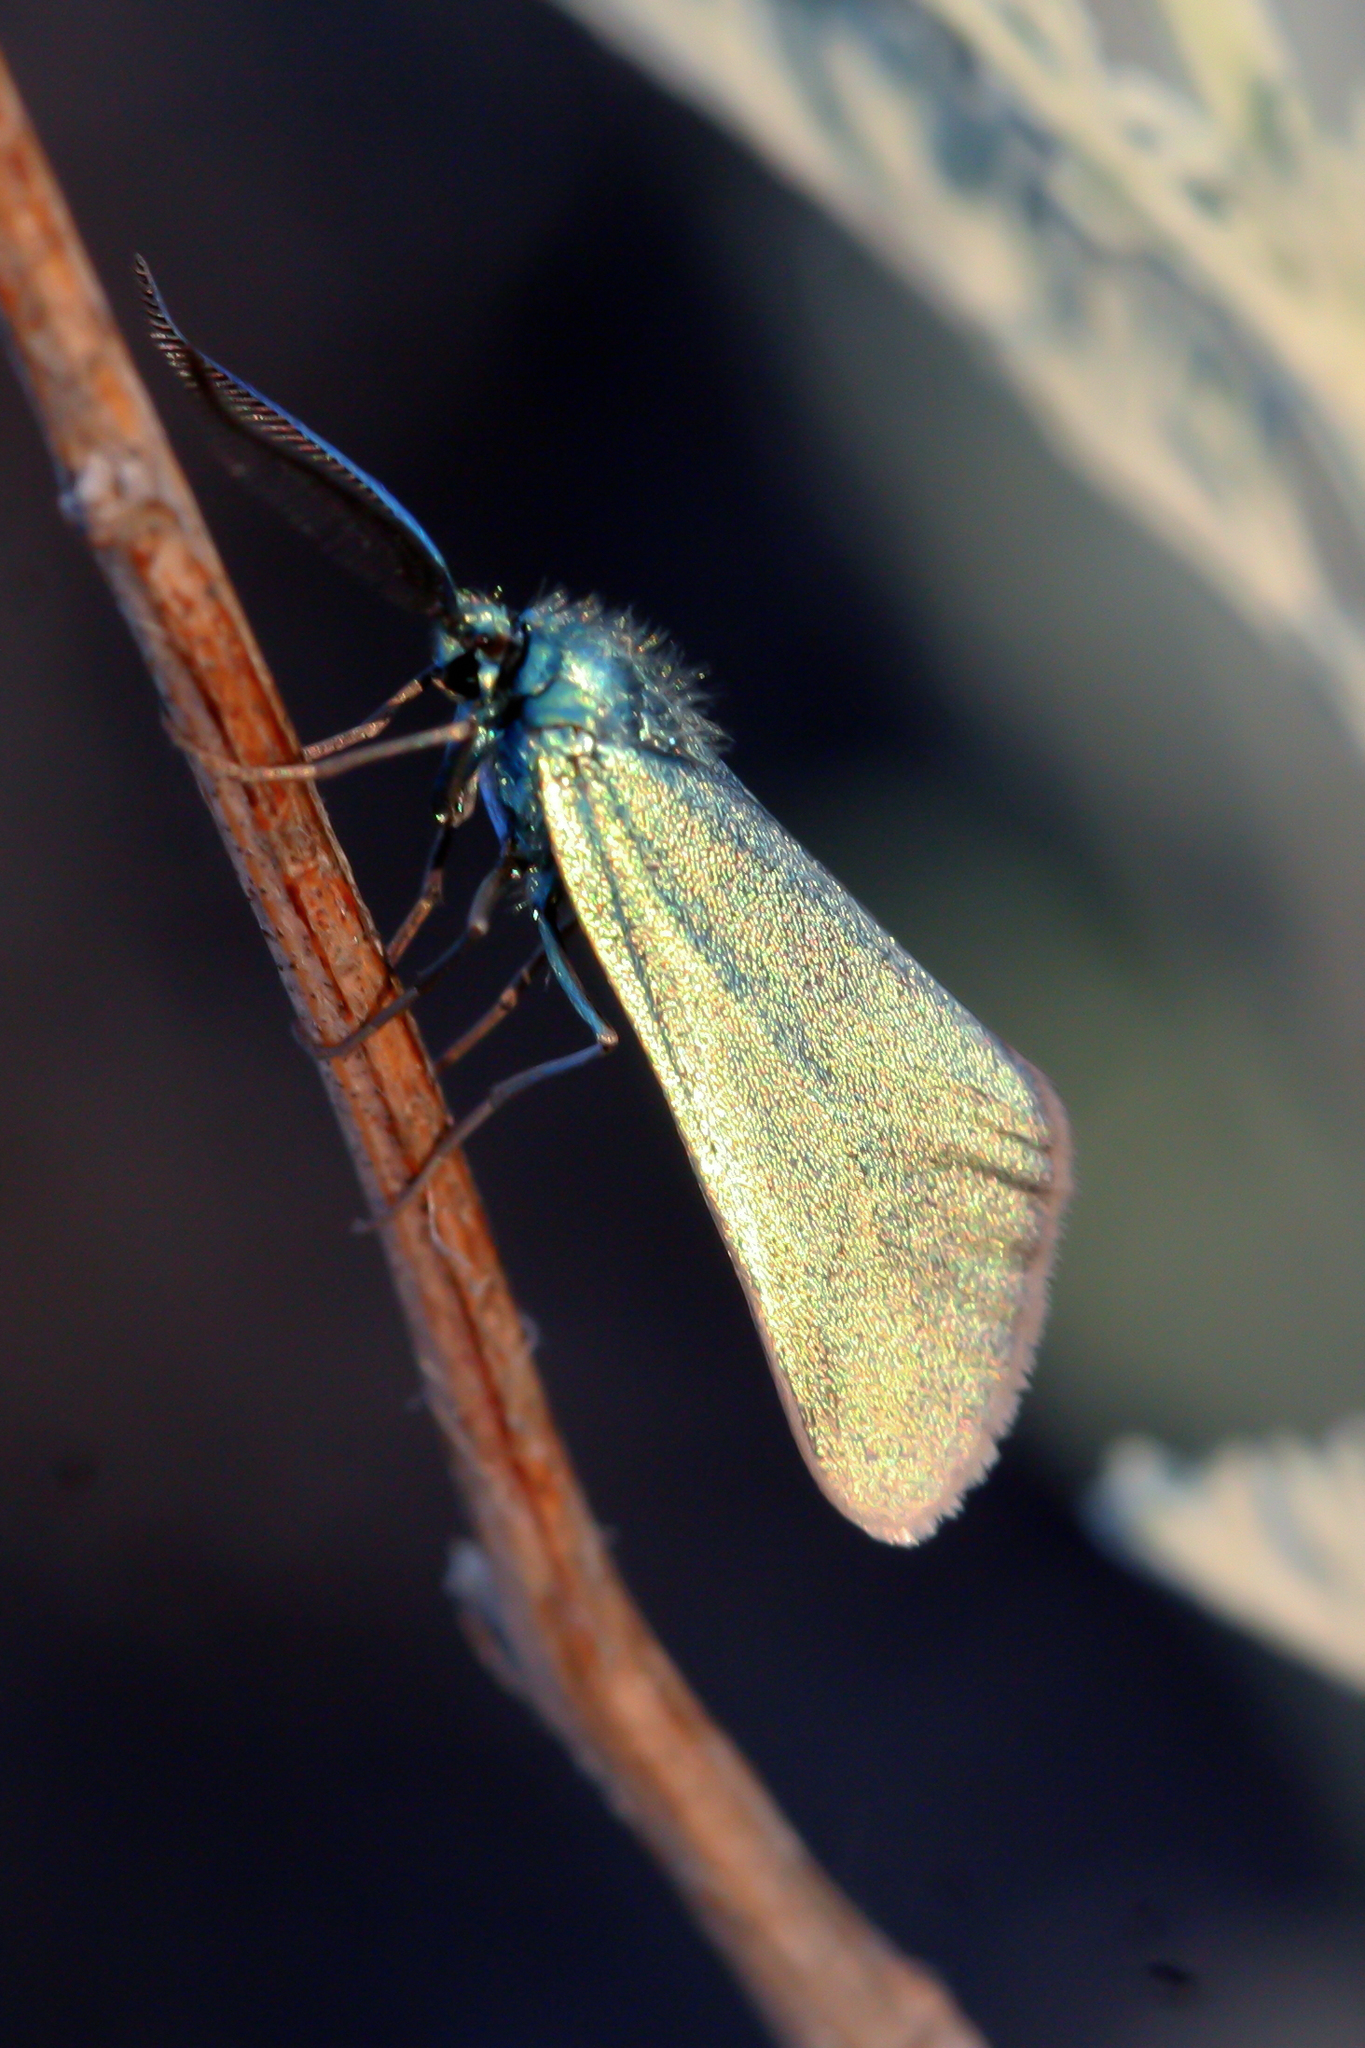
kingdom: Animalia
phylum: Arthropoda
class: Insecta
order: Lepidoptera
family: Zygaenidae
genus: Jordanita
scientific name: Jordanita volgensis
